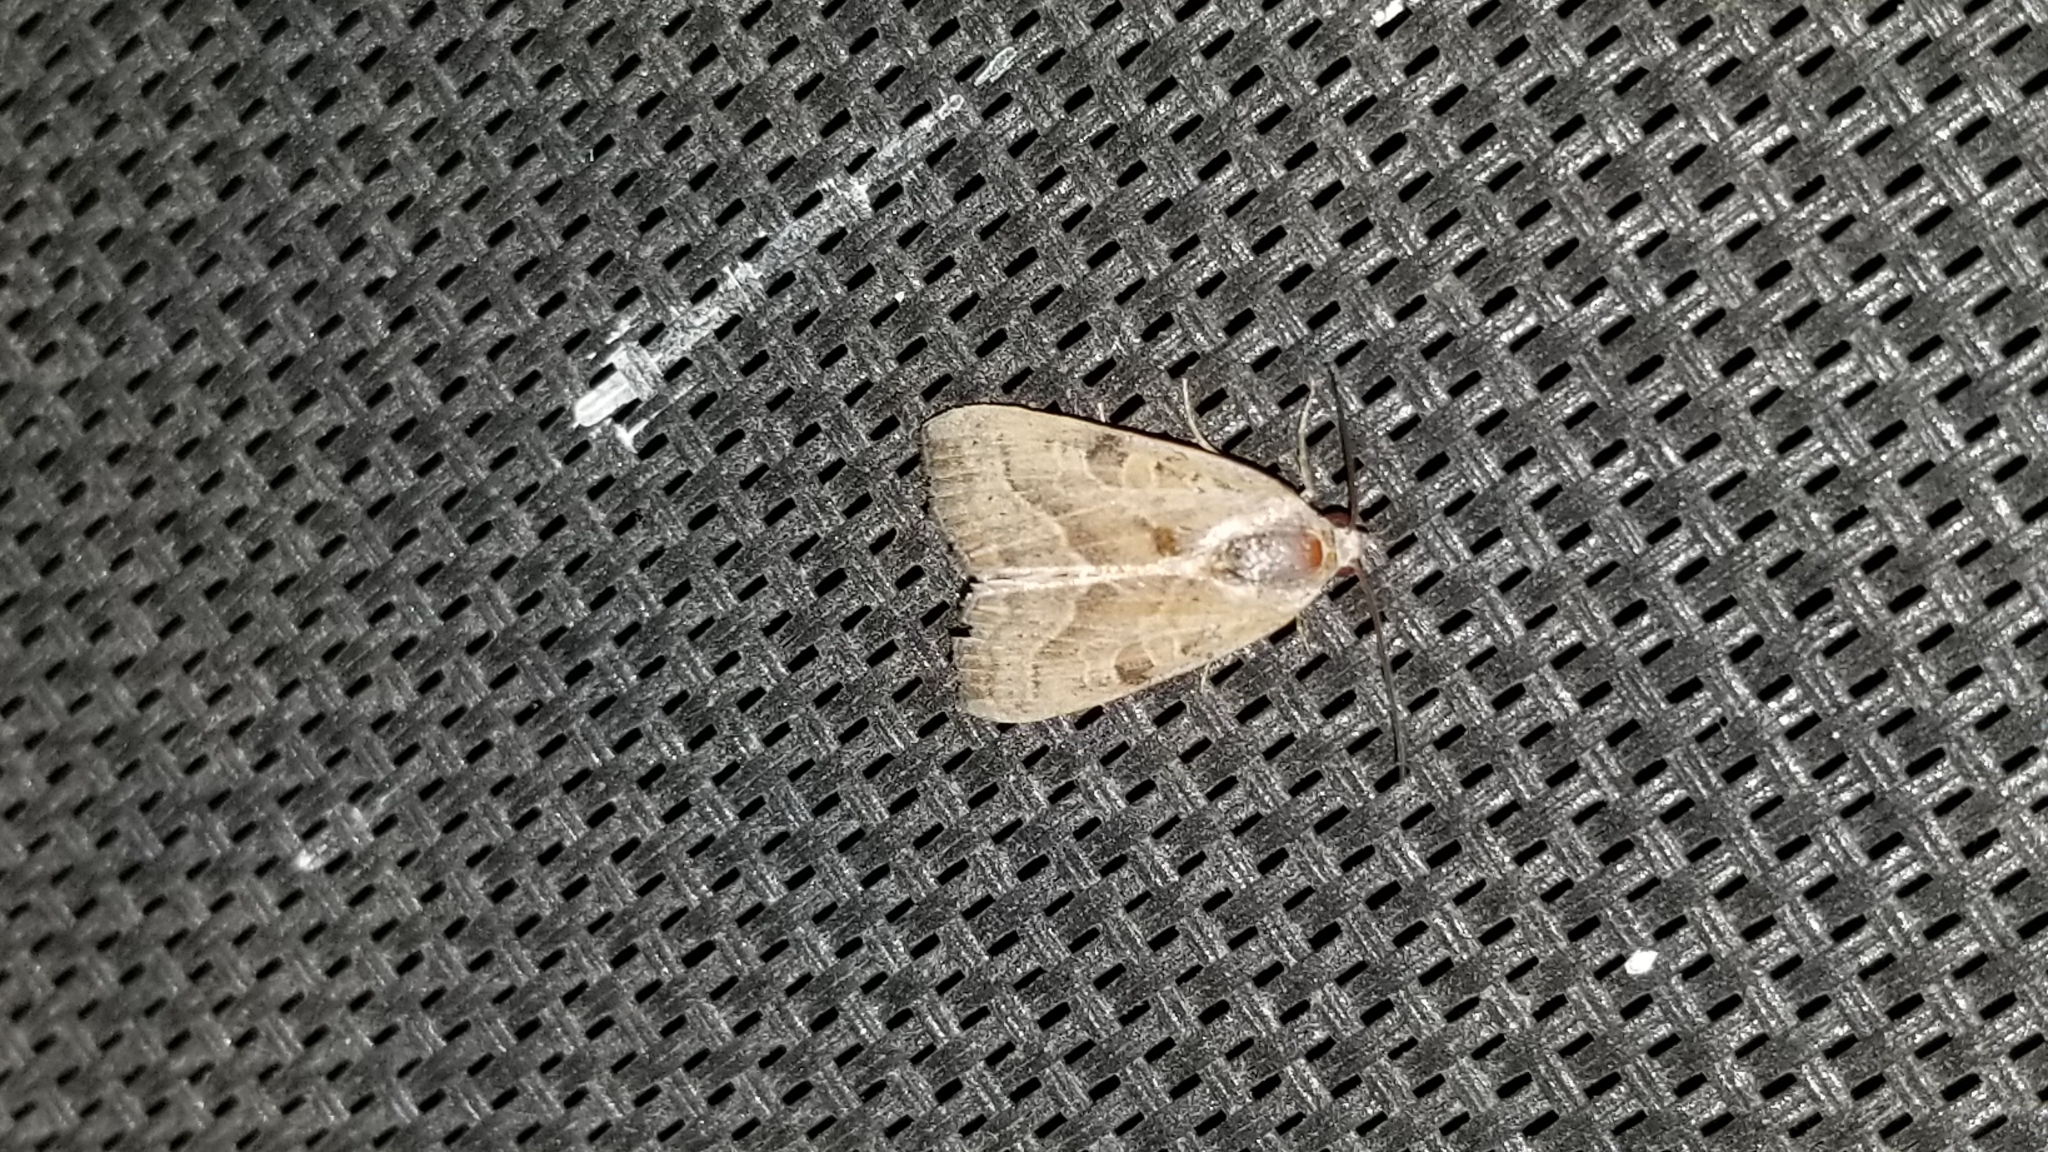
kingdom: Animalia
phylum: Arthropoda
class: Insecta
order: Lepidoptera
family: Noctuidae
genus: Galgula
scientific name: Galgula partita
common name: Wedgeling
